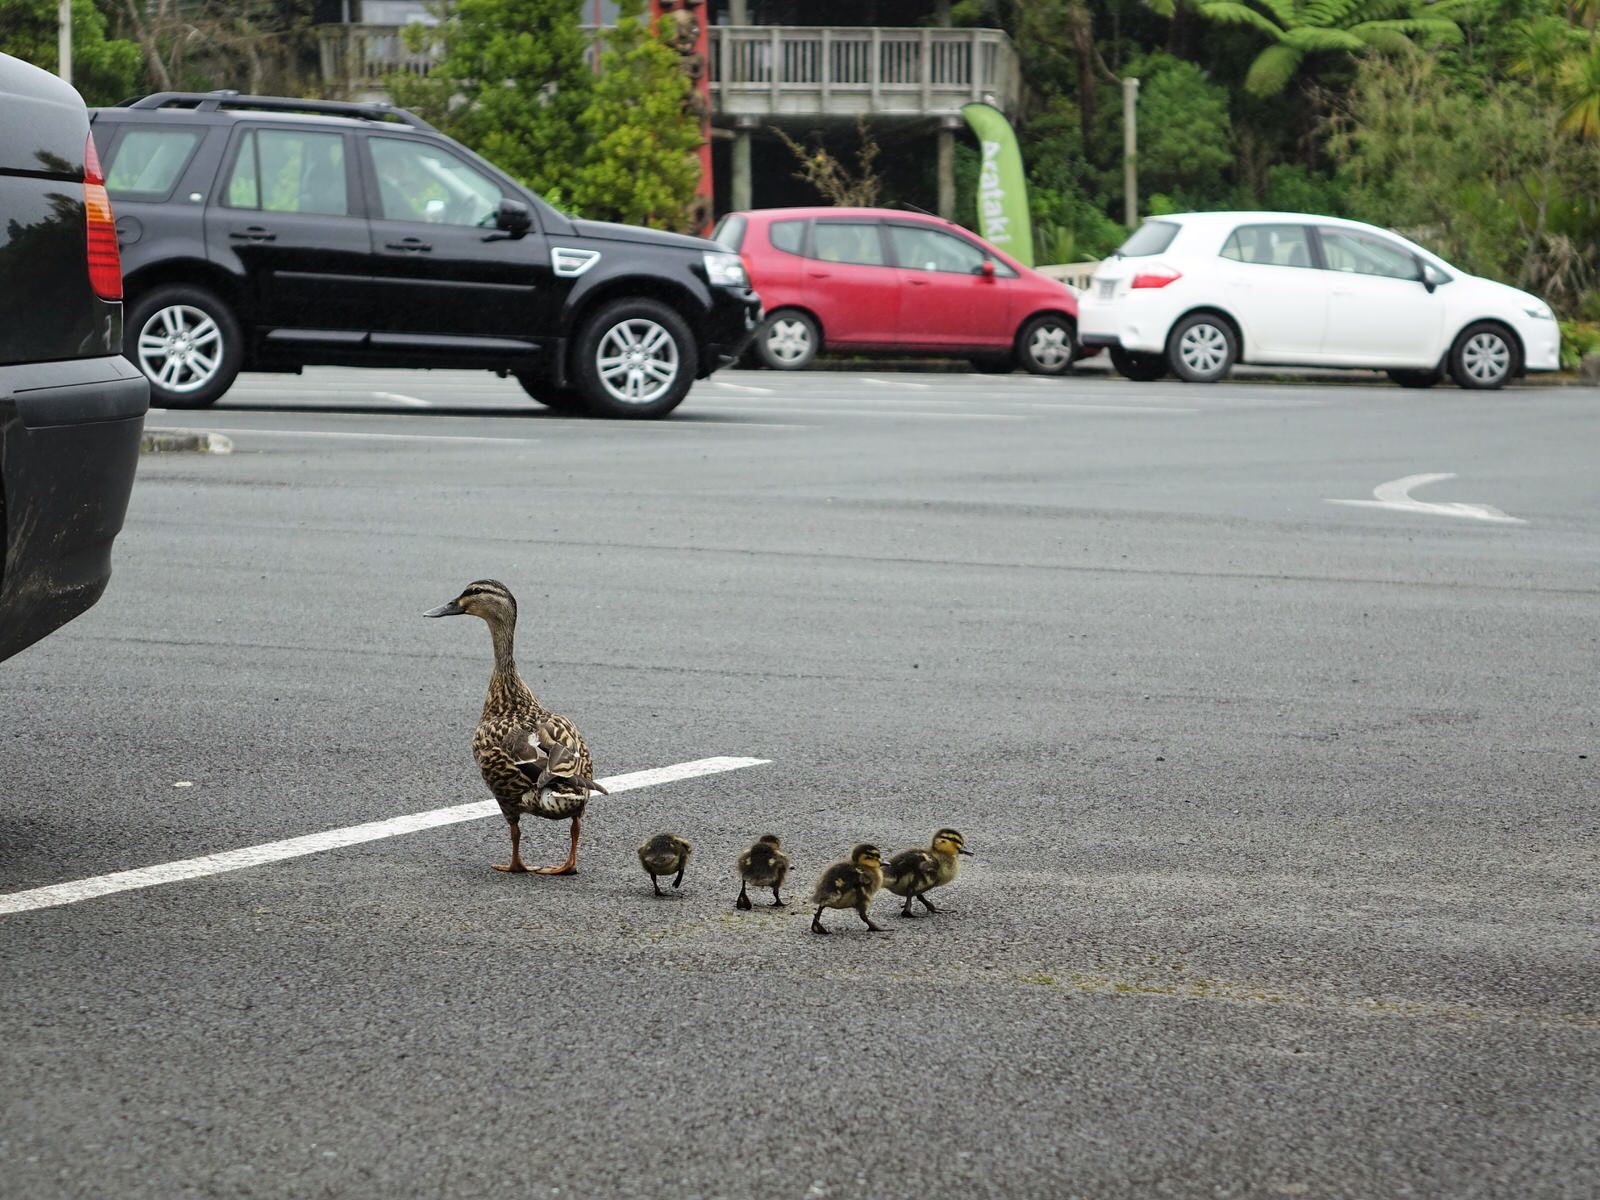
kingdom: Animalia
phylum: Chordata
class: Aves
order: Anseriformes
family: Anatidae
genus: Anas
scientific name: Anas
